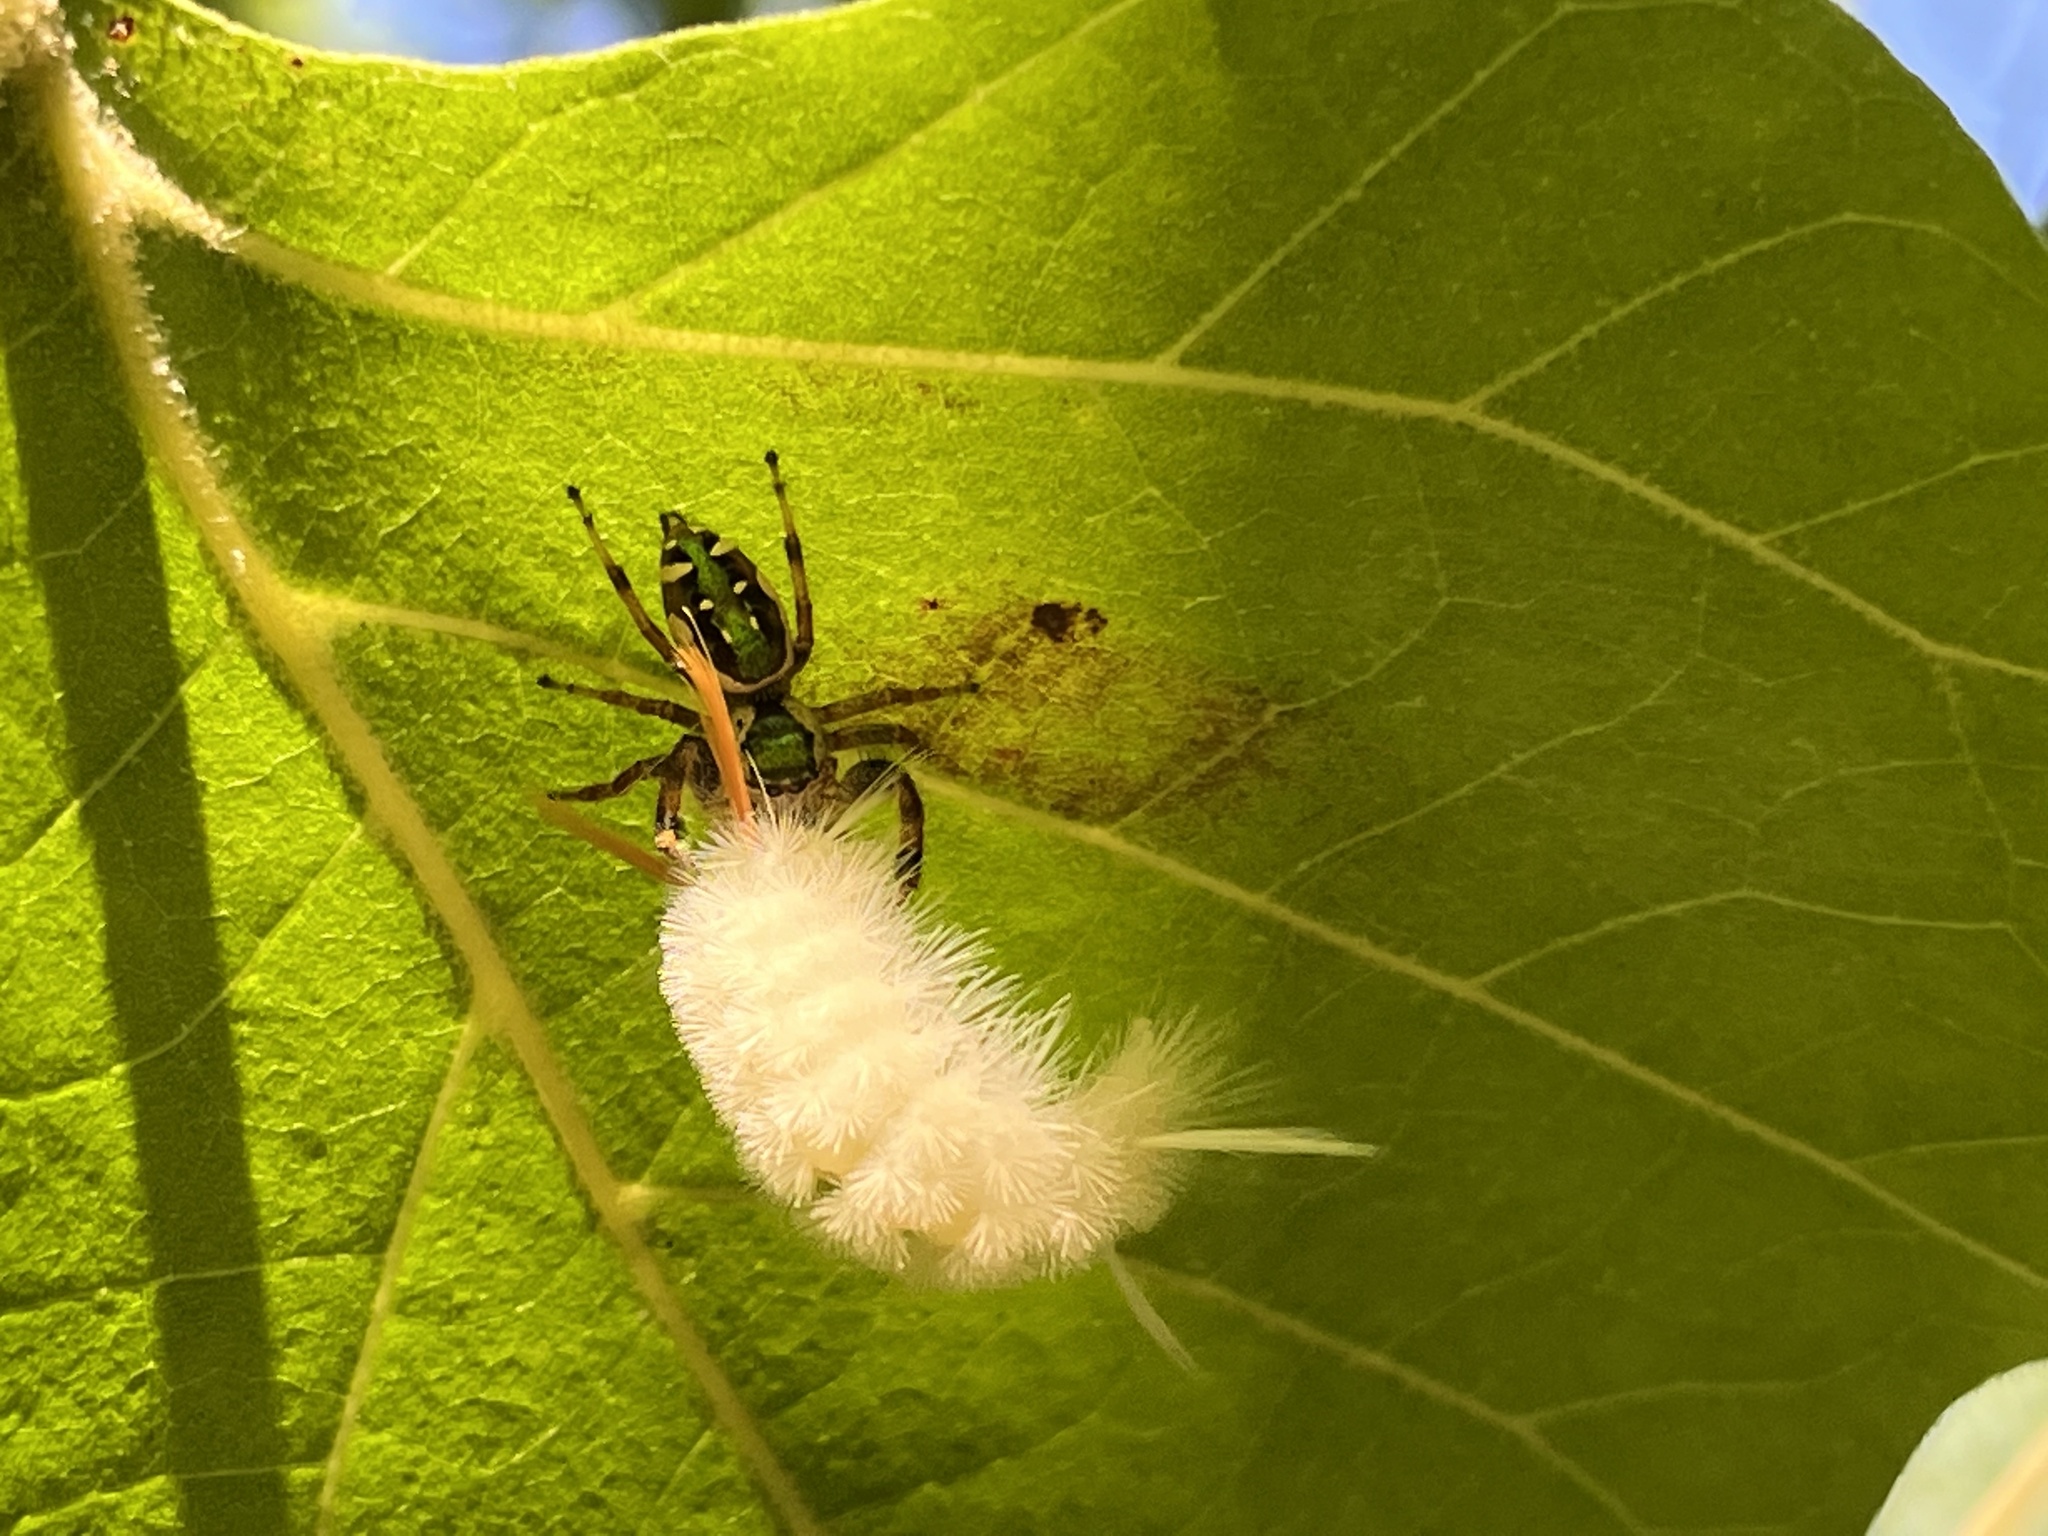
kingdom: Animalia
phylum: Arthropoda
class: Arachnida
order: Araneae
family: Salticidae
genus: Paraphidippus
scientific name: Paraphidippus aurantius
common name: Jumping spiders
